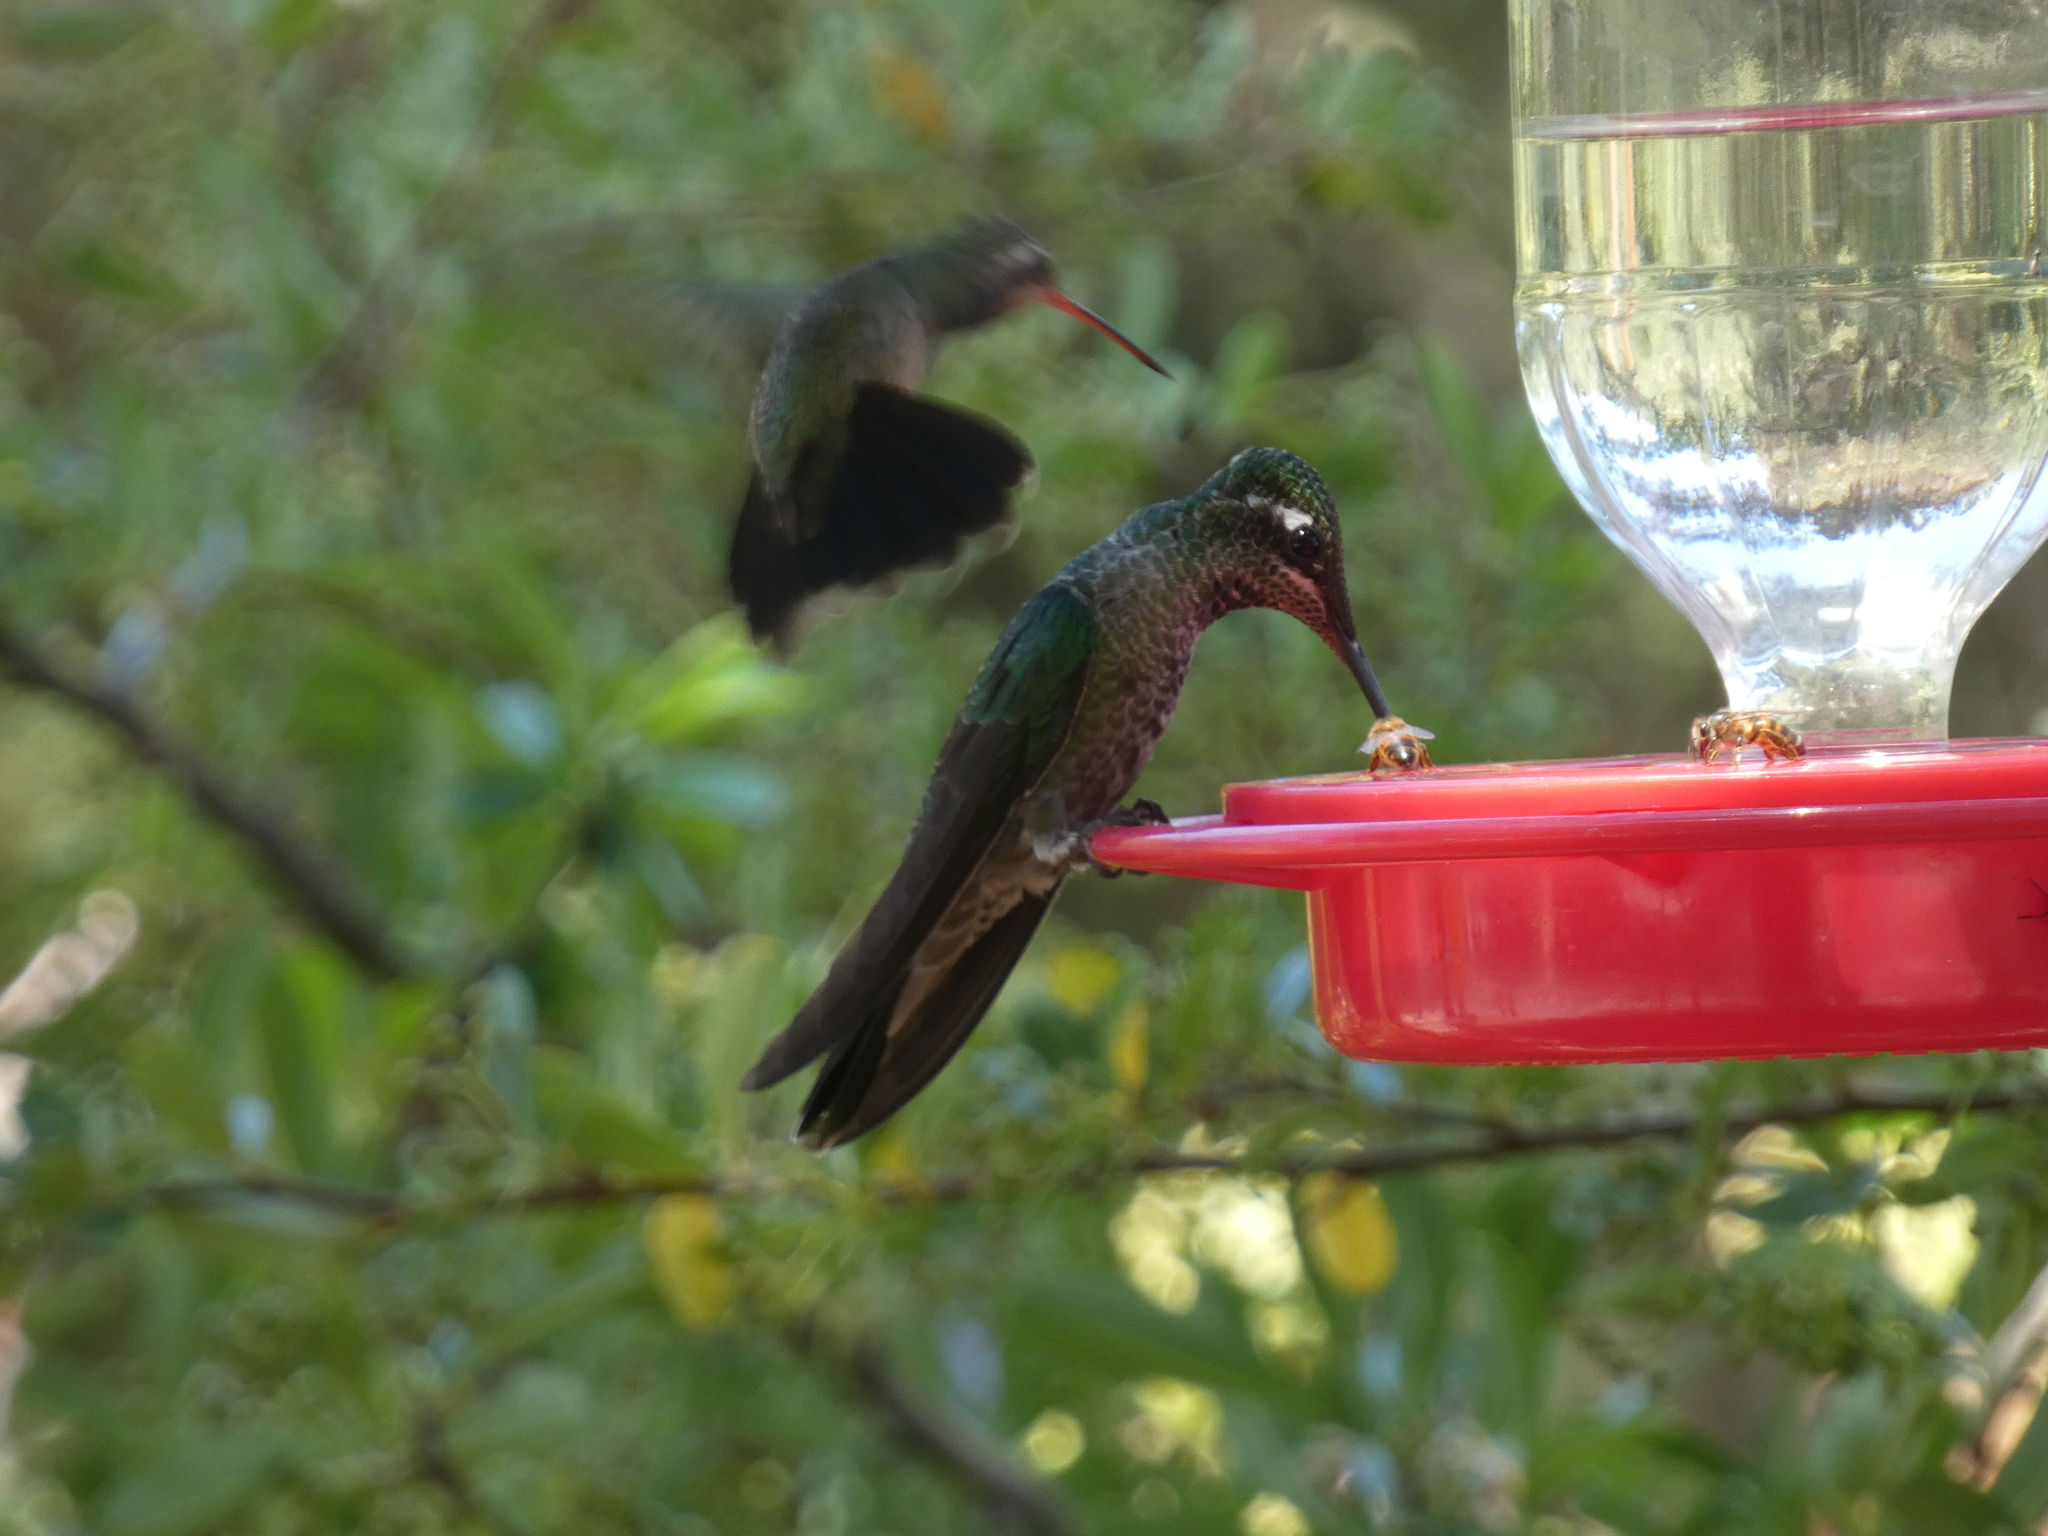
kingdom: Animalia
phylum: Chordata
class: Aves
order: Apodiformes
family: Trochilidae
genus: Eugenes
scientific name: Eugenes fulgens
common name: Magnificent hummingbird
